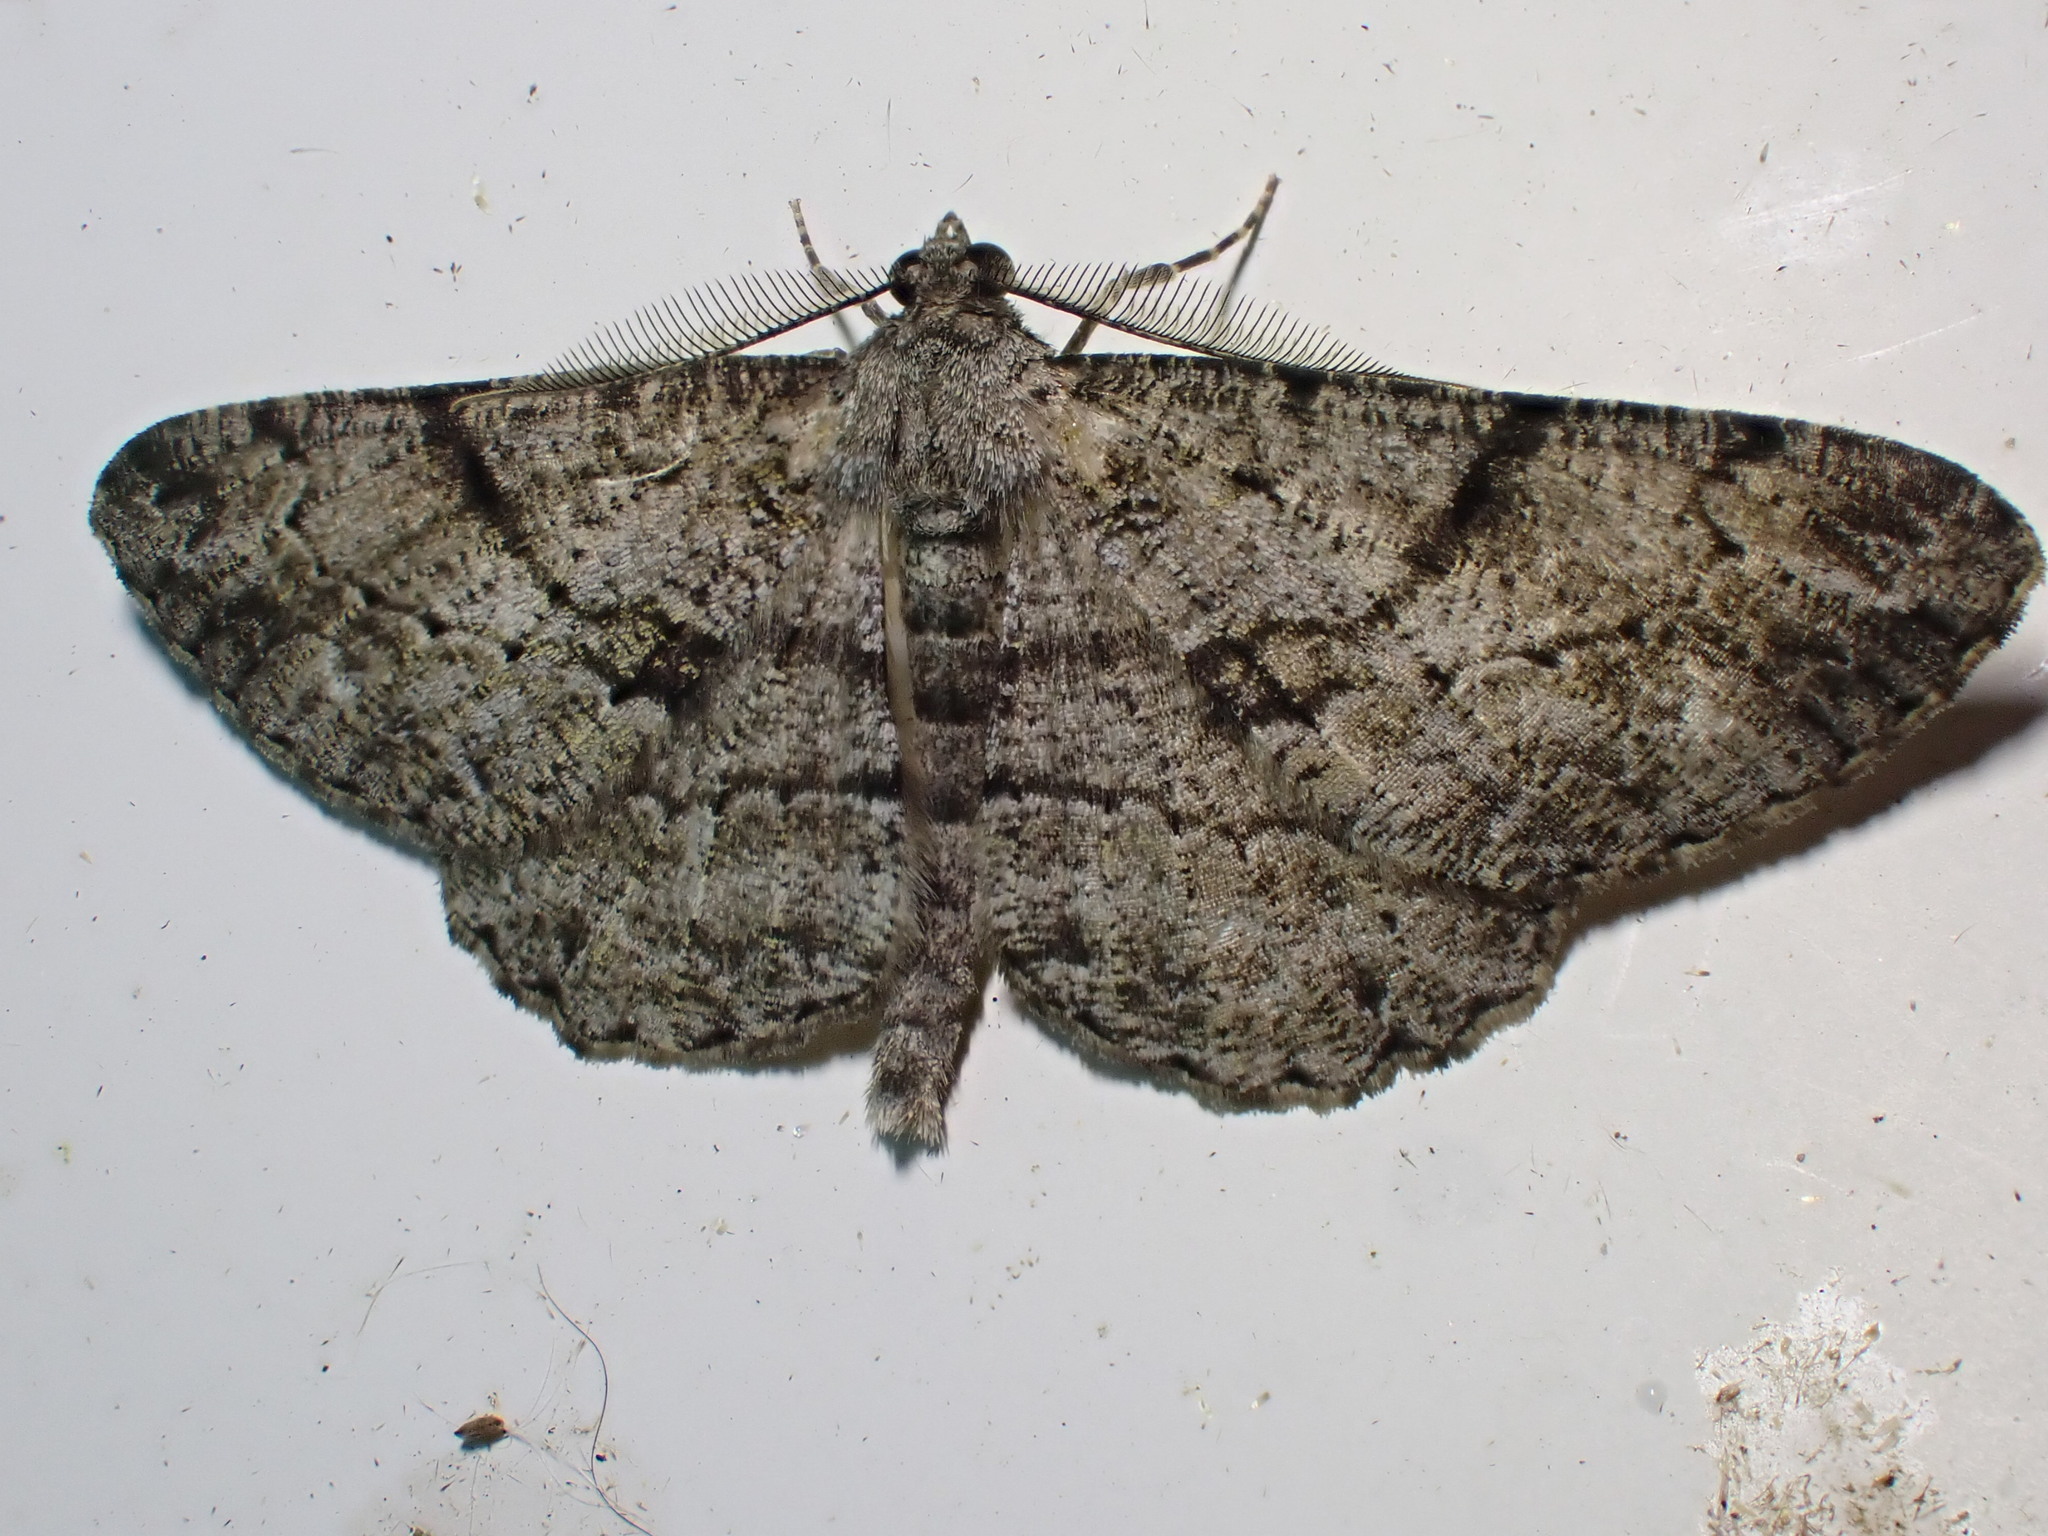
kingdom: Animalia
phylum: Arthropoda
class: Insecta
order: Lepidoptera
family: Geometridae
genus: Peribatodes
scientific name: Peribatodes rhomboidaria
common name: Willow beauty
